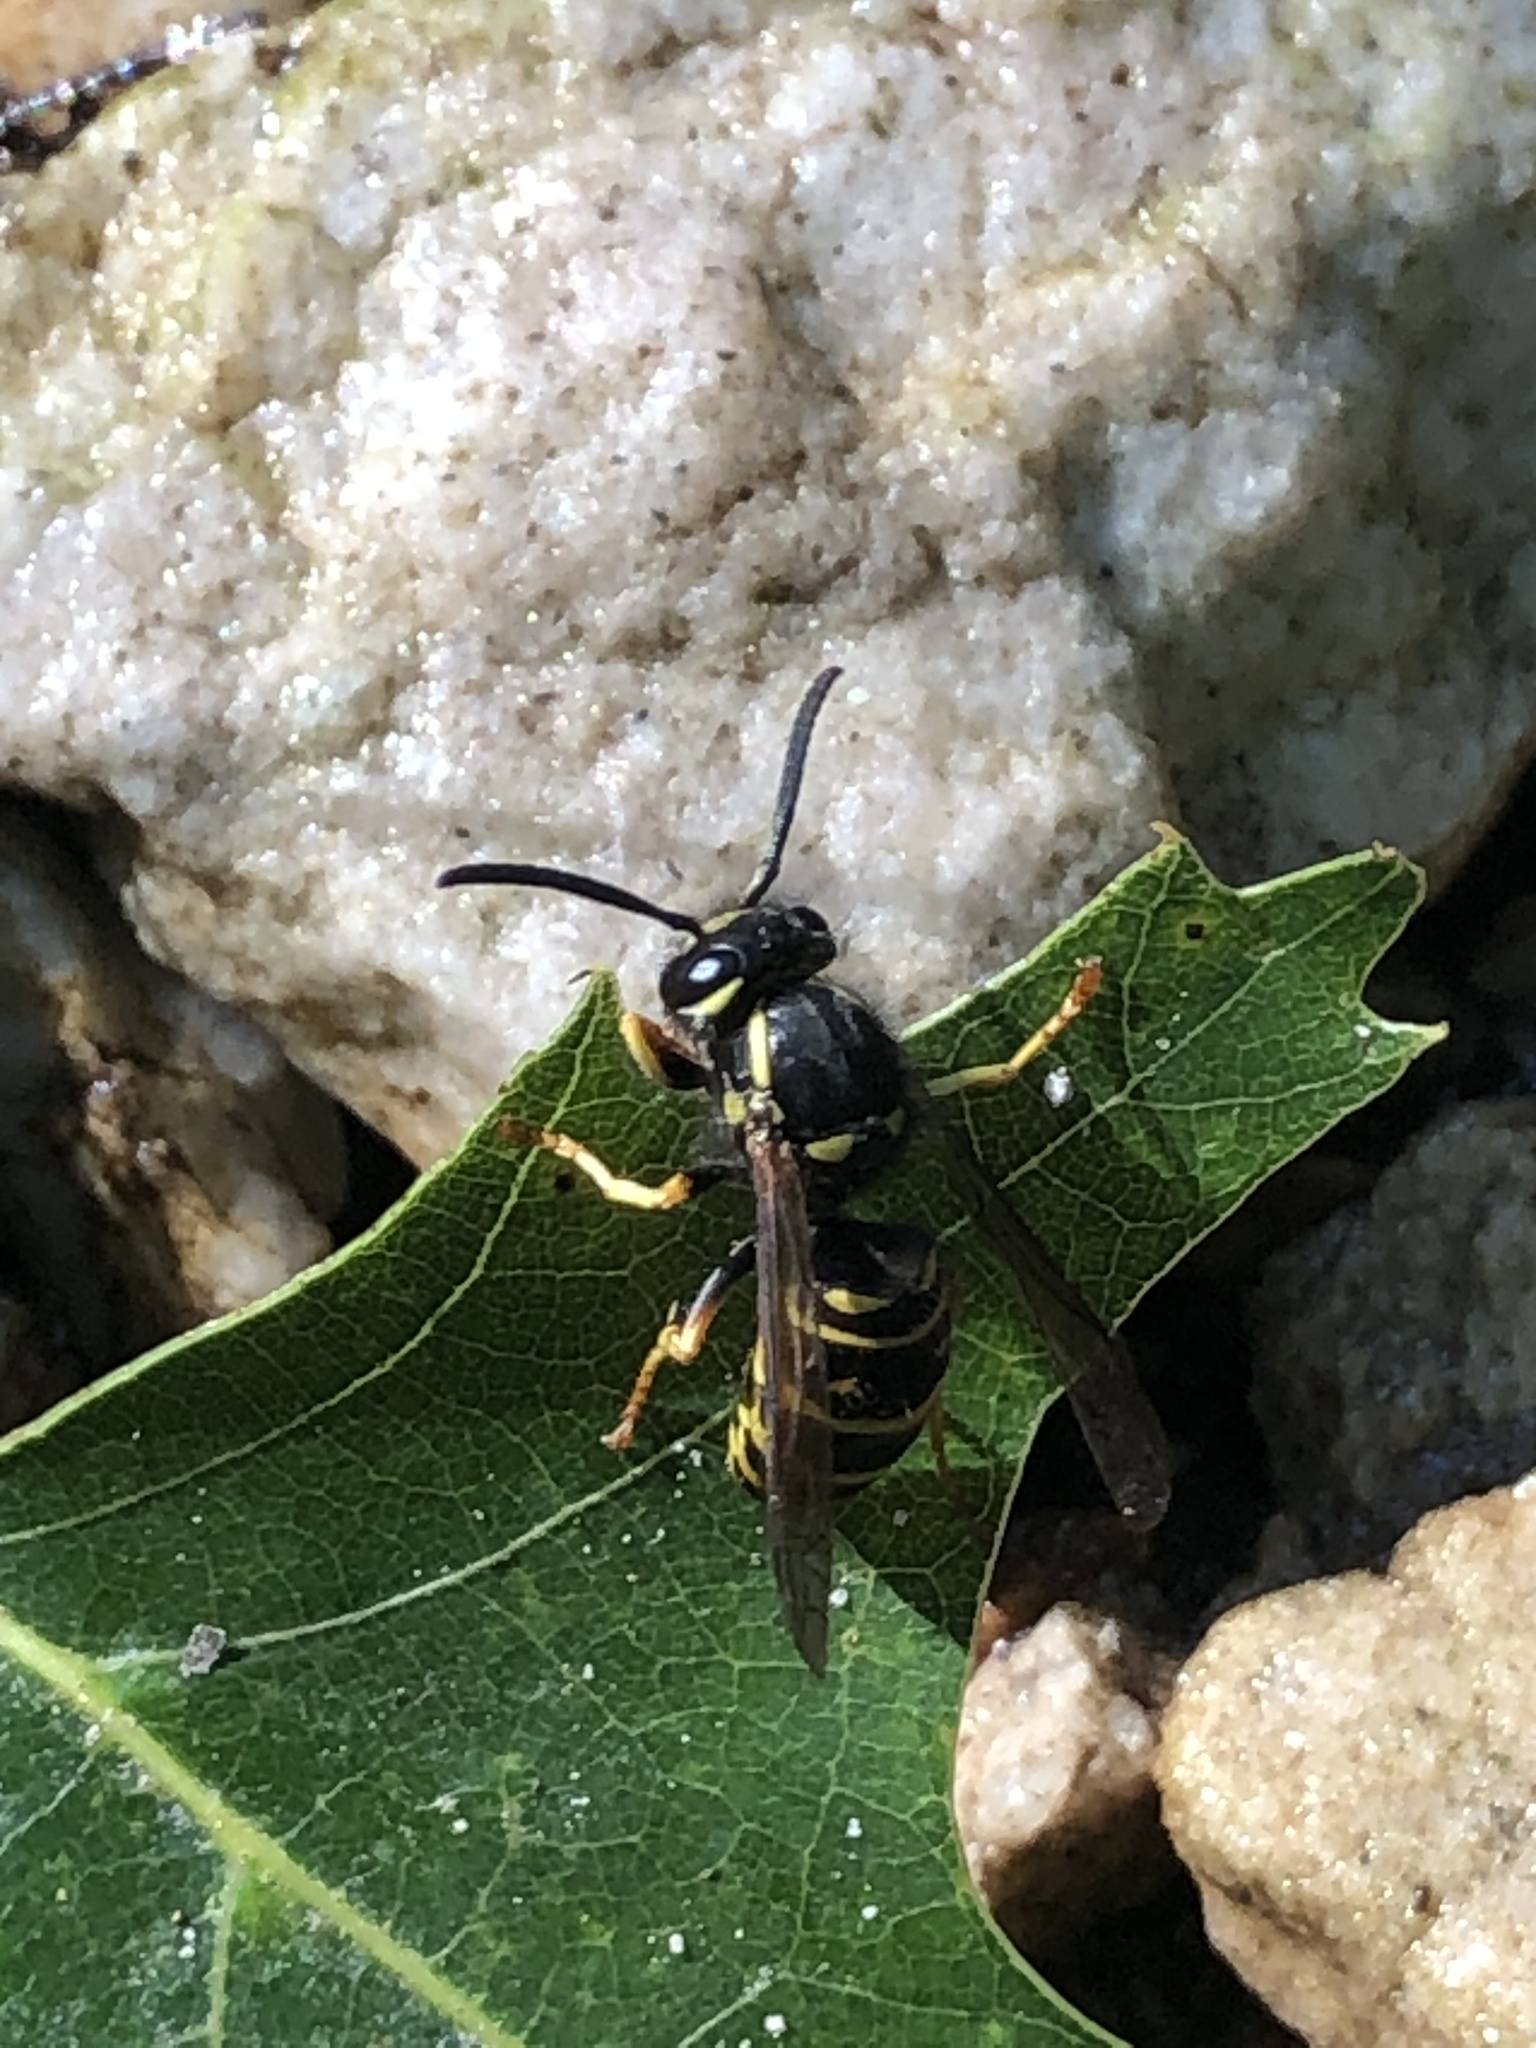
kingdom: Animalia
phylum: Arthropoda
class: Insecta
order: Hymenoptera
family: Vespidae
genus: Vespula
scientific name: Vespula acadica
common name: Forest yellowjacket
